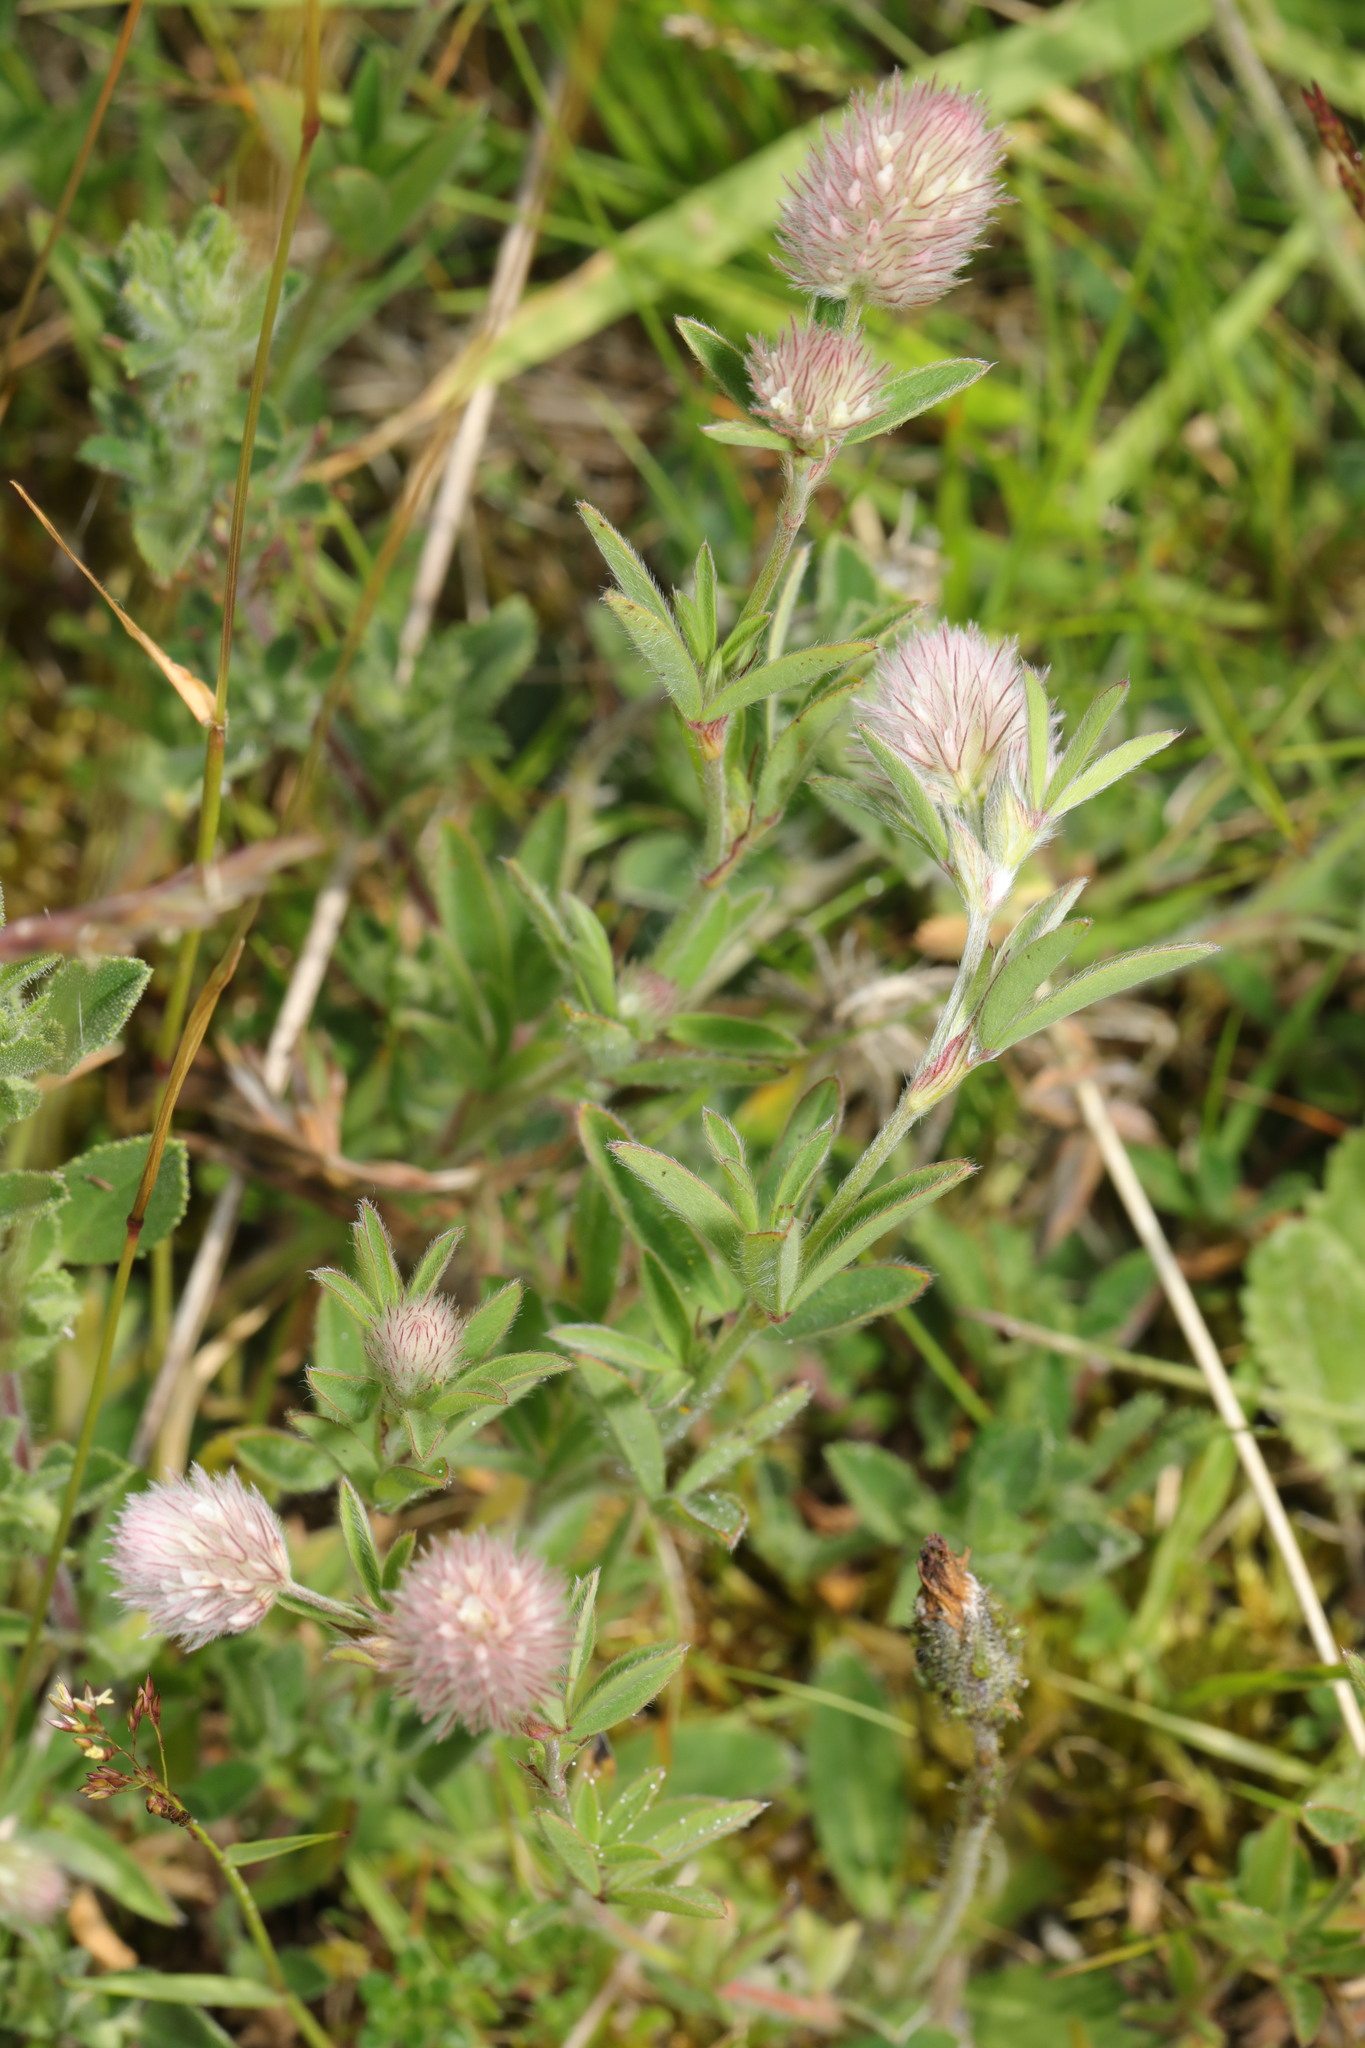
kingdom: Plantae
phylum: Tracheophyta
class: Magnoliopsida
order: Fabales
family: Fabaceae
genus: Trifolium
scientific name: Trifolium arvense
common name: Hare's-foot clover
